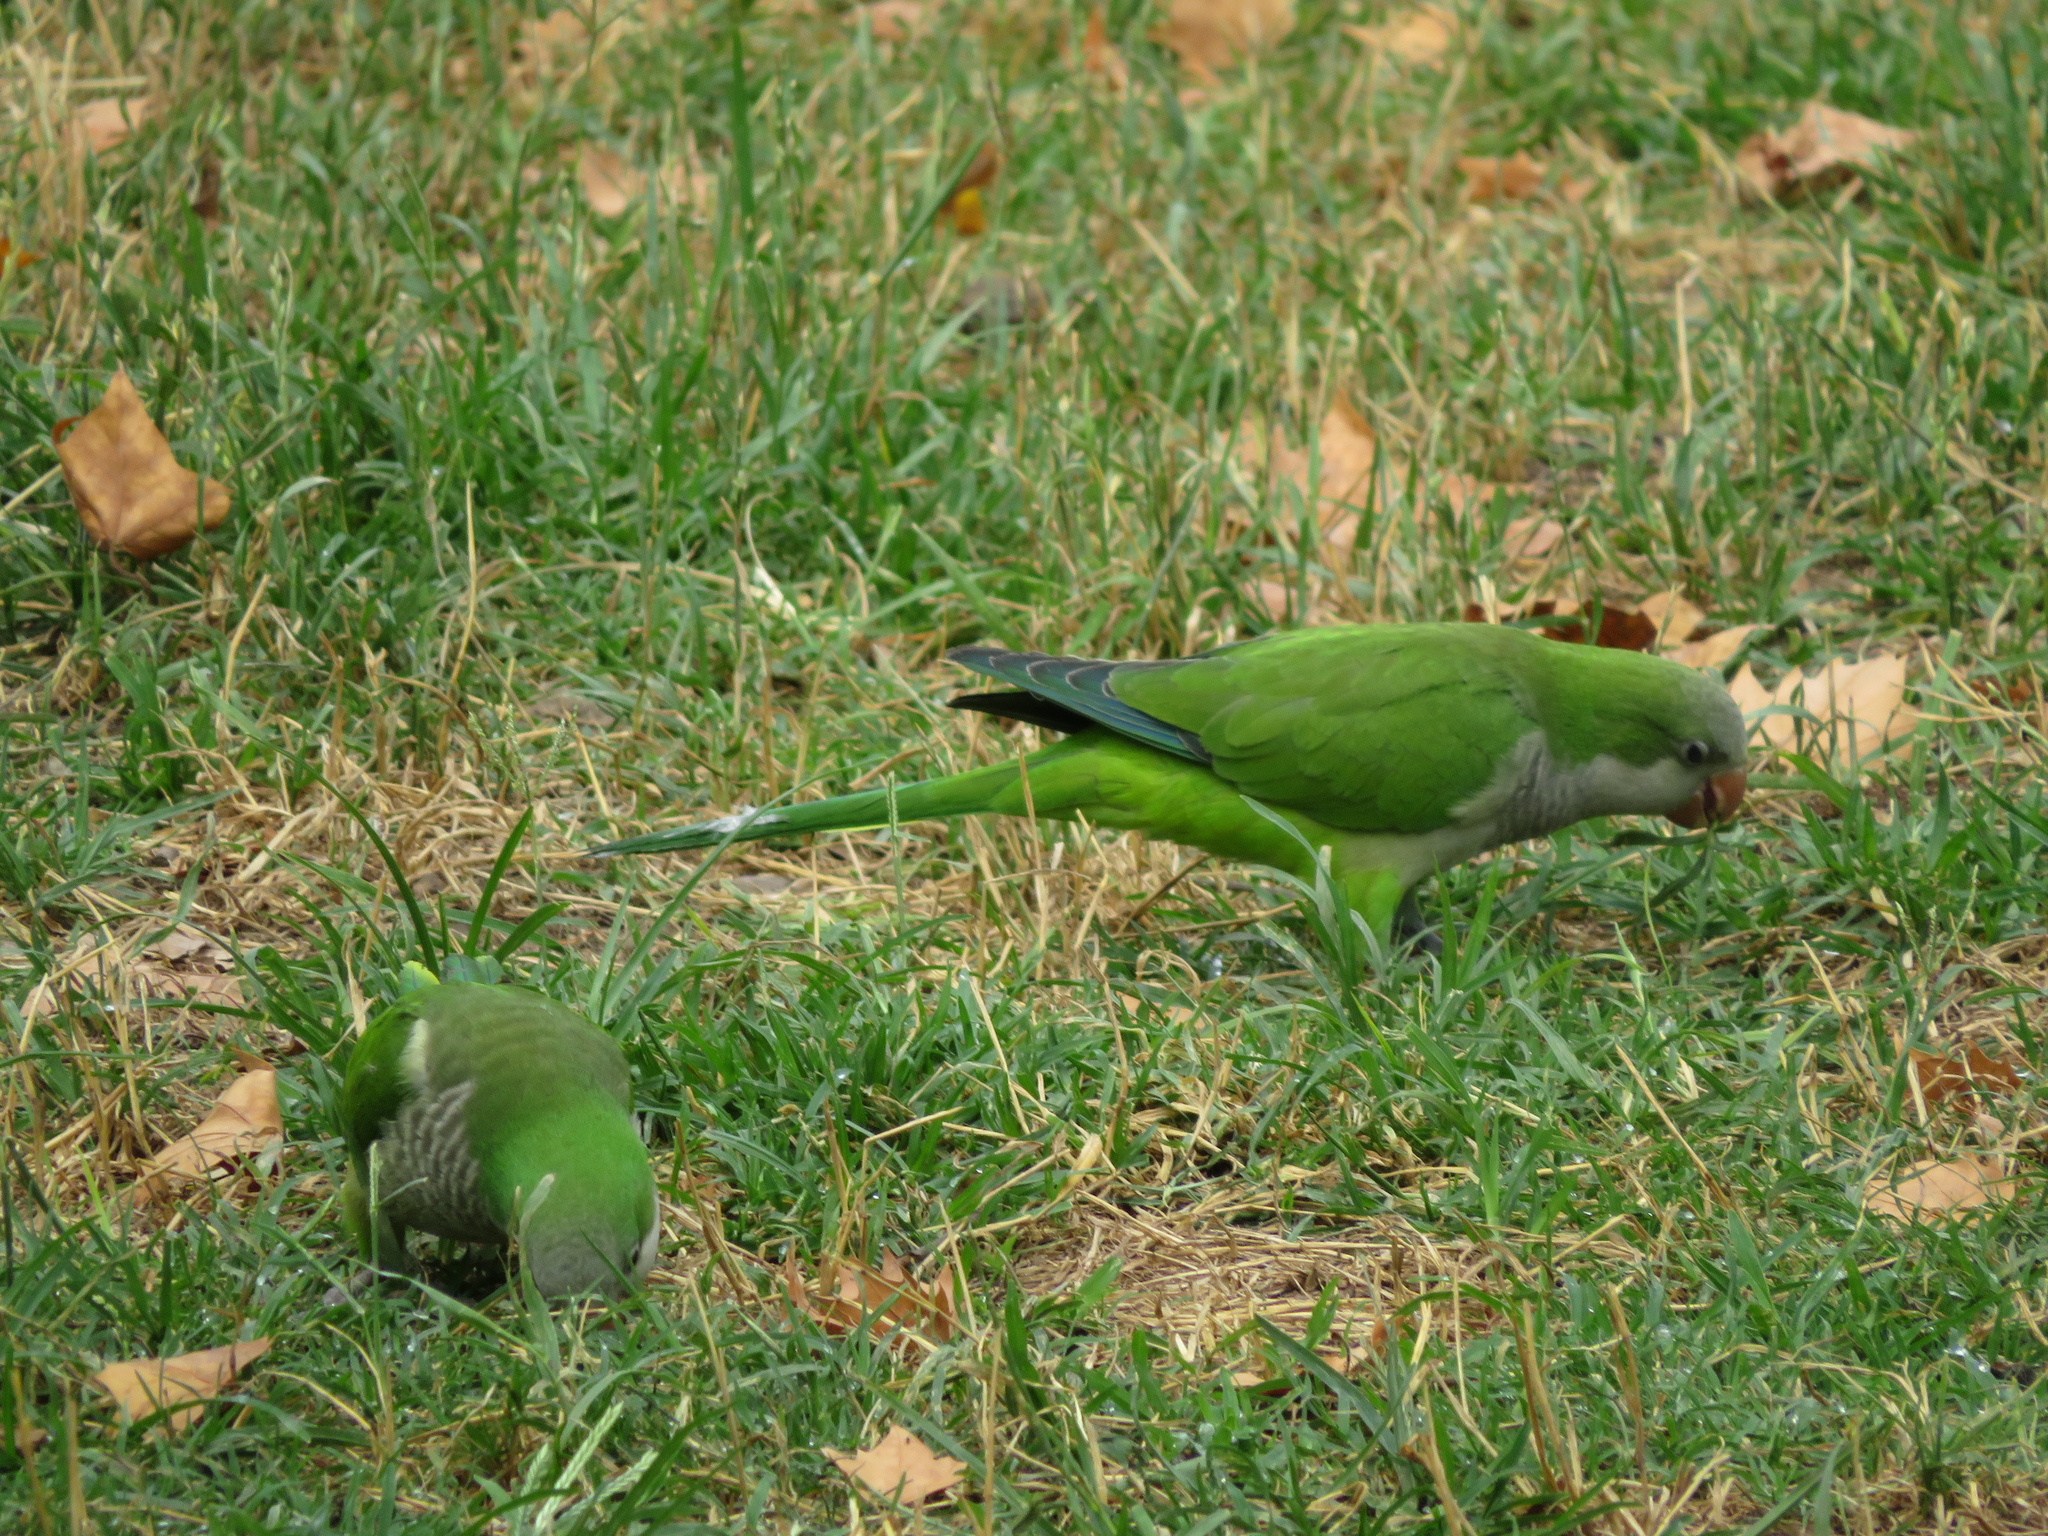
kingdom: Animalia
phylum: Chordata
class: Aves
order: Psittaciformes
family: Psittacidae
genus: Myiopsitta
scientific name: Myiopsitta monachus
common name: Monk parakeet
